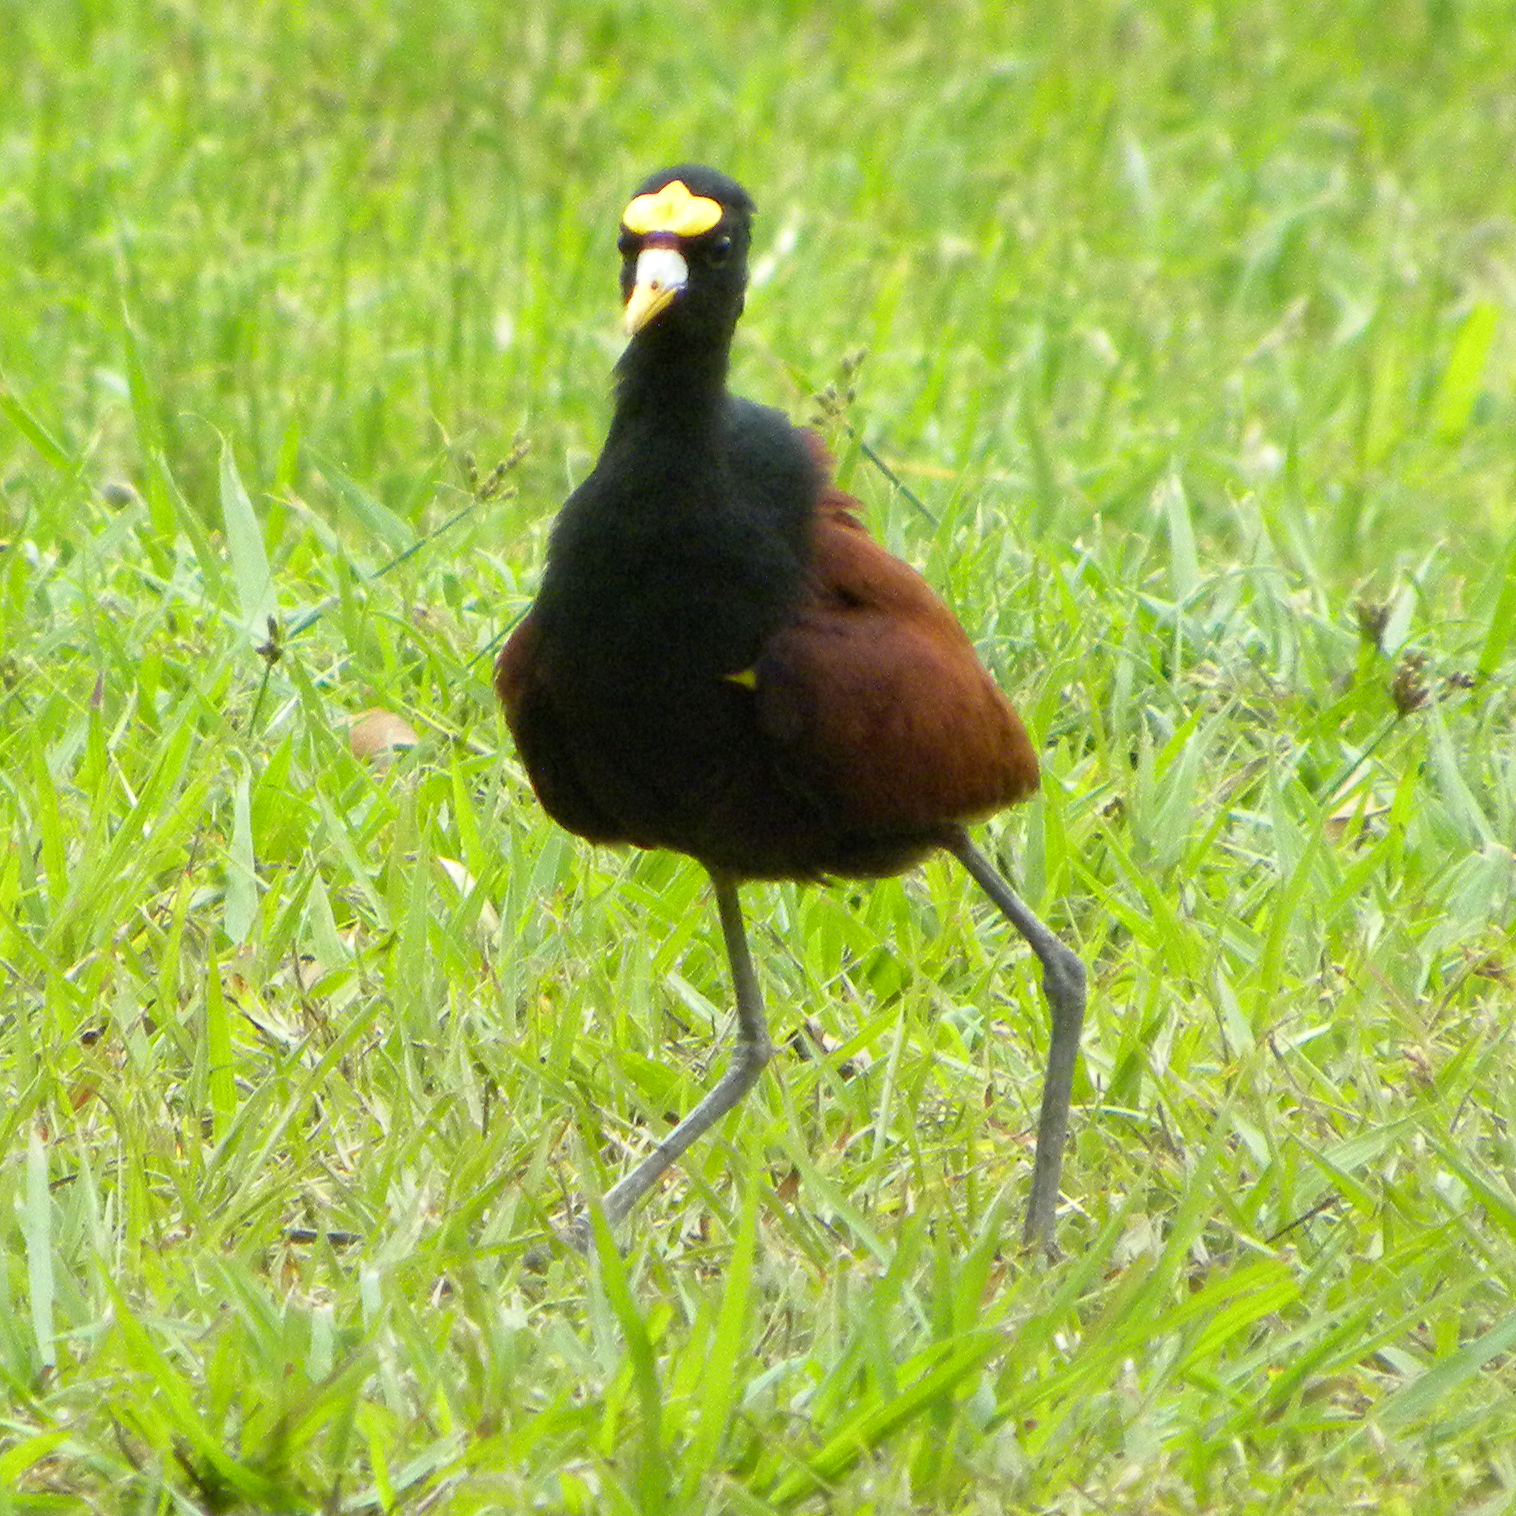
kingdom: Animalia
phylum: Chordata
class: Aves
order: Charadriiformes
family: Jacanidae
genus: Jacana
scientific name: Jacana spinosa
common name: Northern jacana
